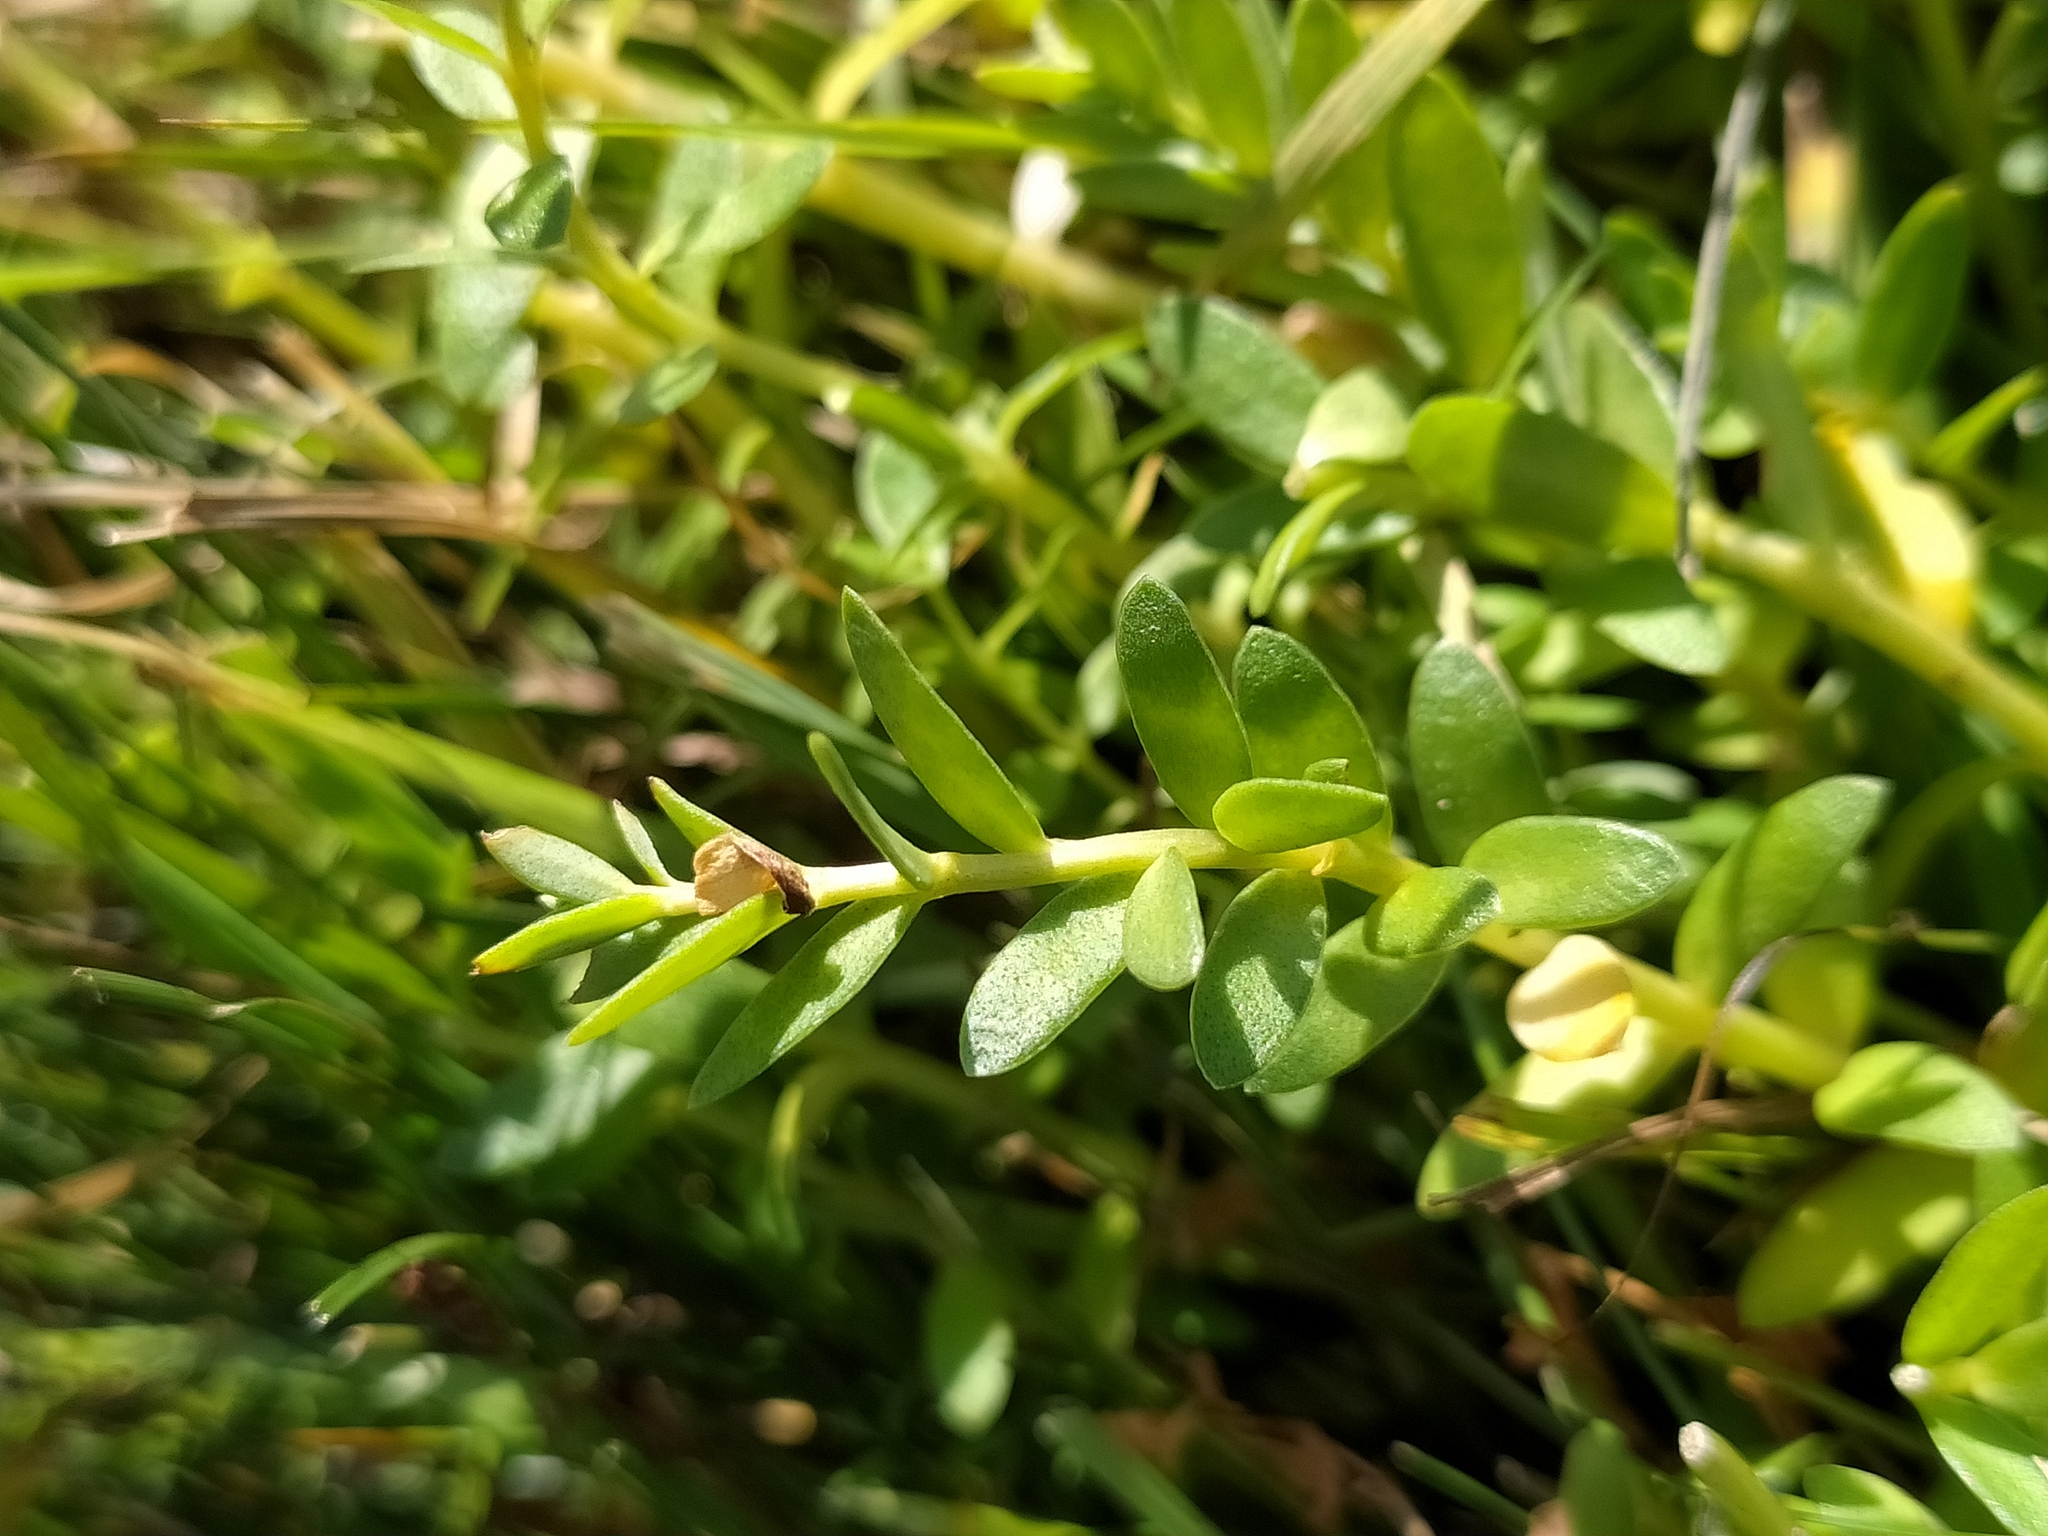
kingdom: Plantae
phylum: Tracheophyta
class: Magnoliopsida
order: Ericales
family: Primulaceae
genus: Lysimachia
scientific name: Lysimachia maritima
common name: Sea milkwort
